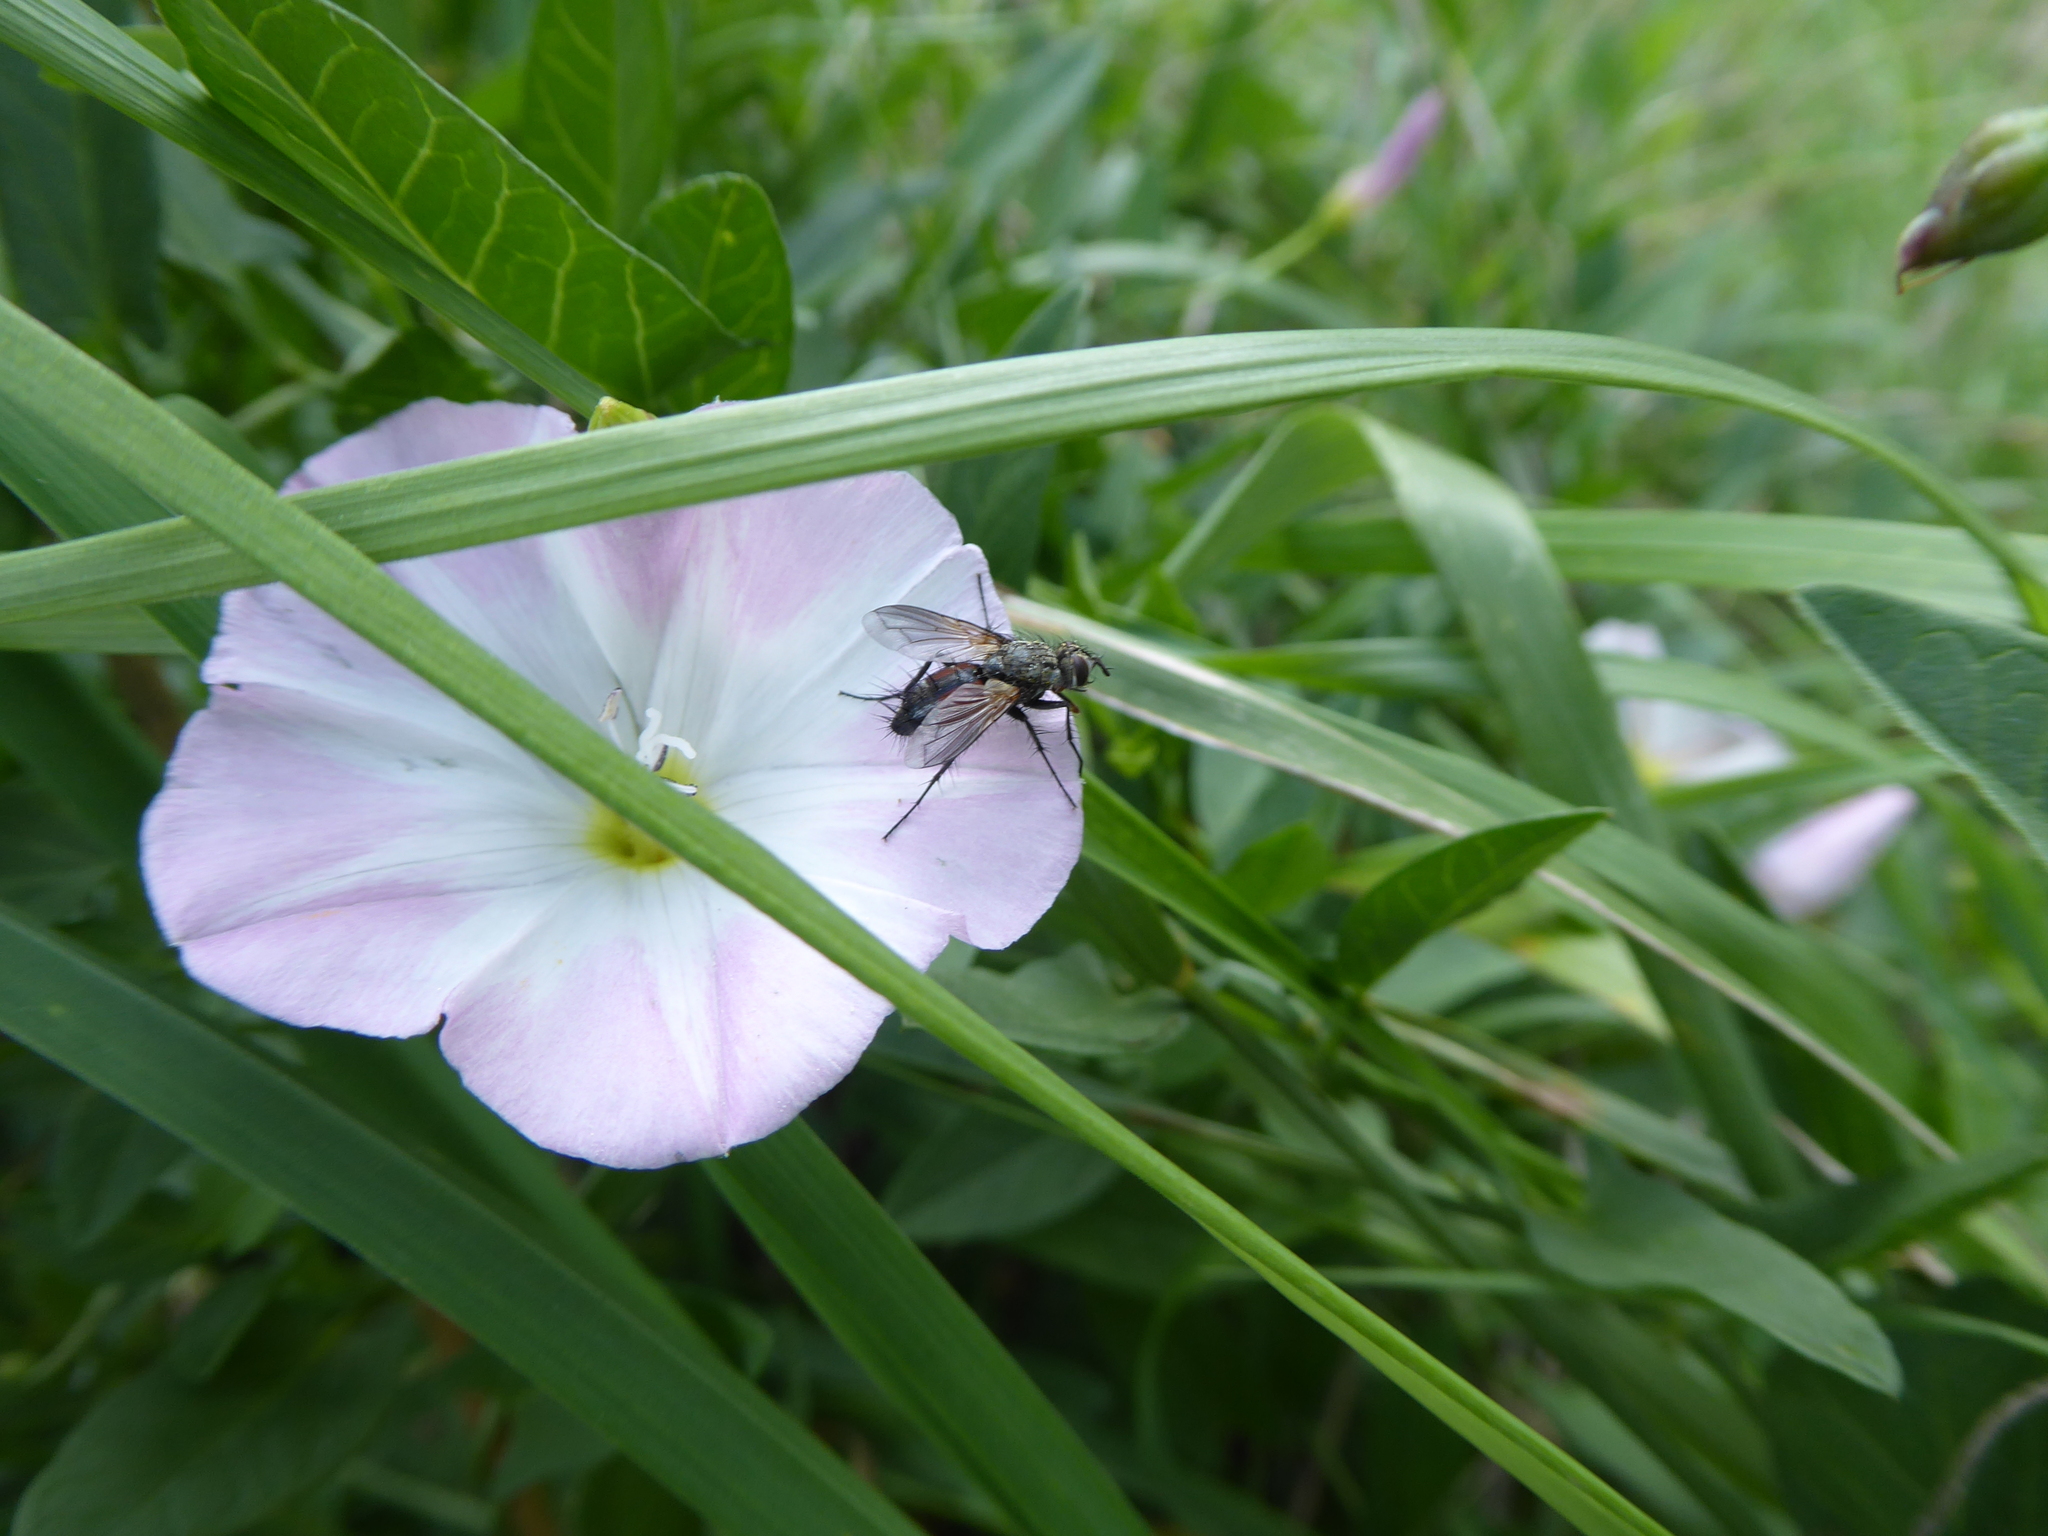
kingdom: Animalia
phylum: Arthropoda
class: Insecta
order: Diptera
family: Tachinidae
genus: Eriothrix
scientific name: Eriothrix rufomaculatus
